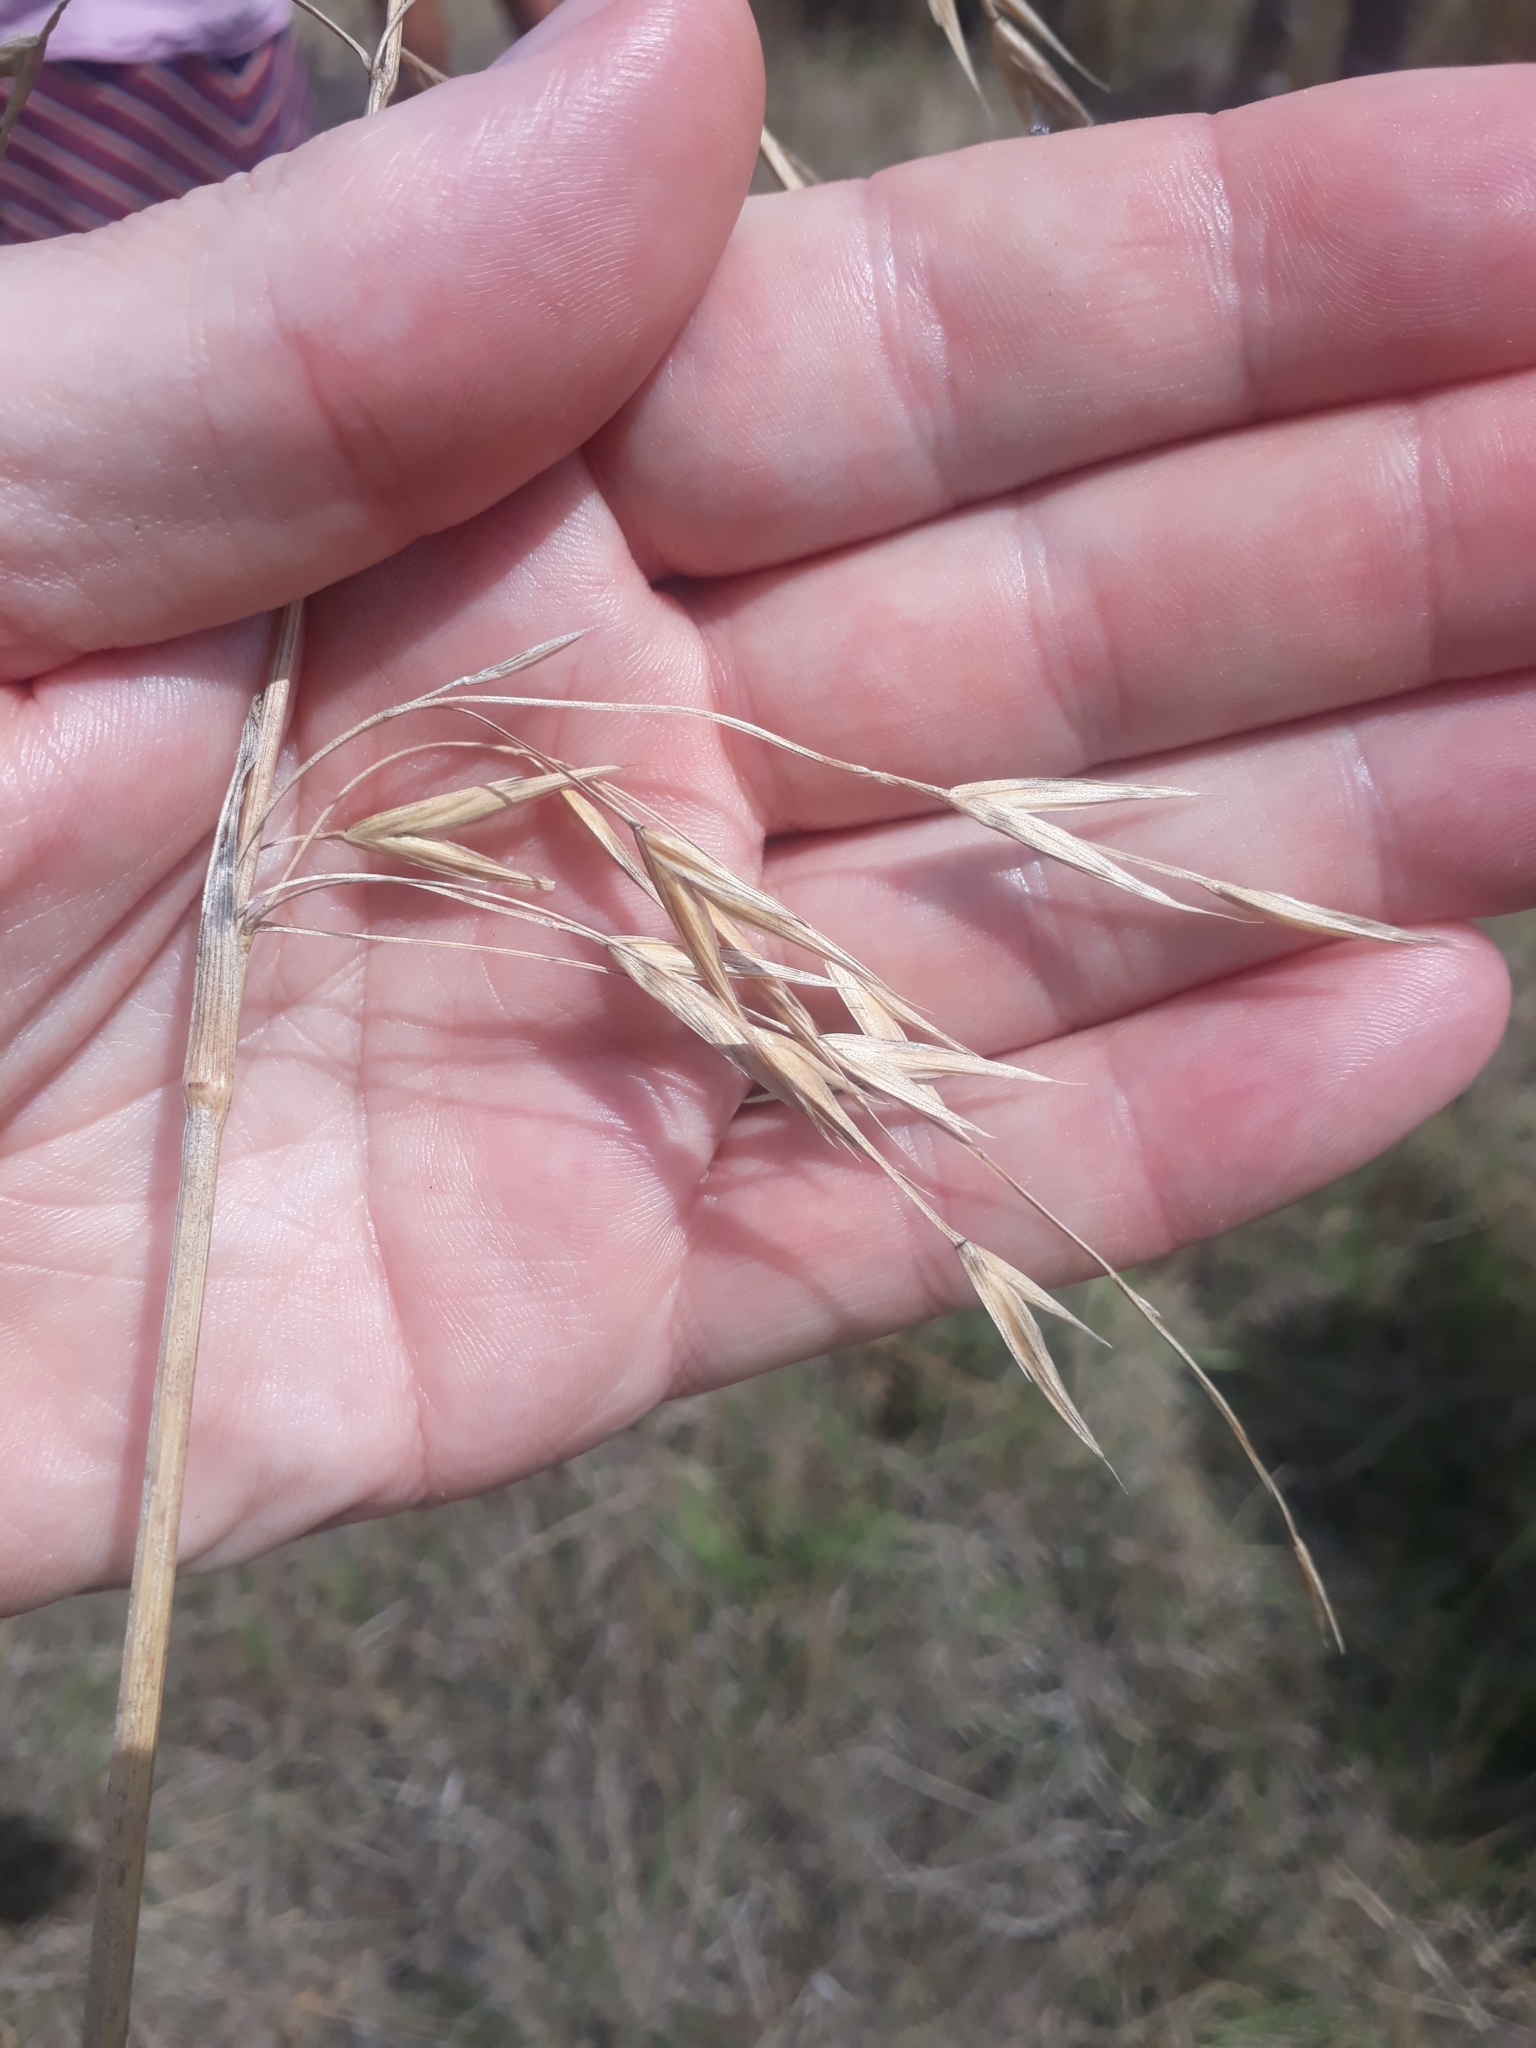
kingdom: Plantae
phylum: Tracheophyta
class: Liliopsida
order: Poales
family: Poaceae
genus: Bromus
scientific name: Bromus catharticus
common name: Rescuegrass
